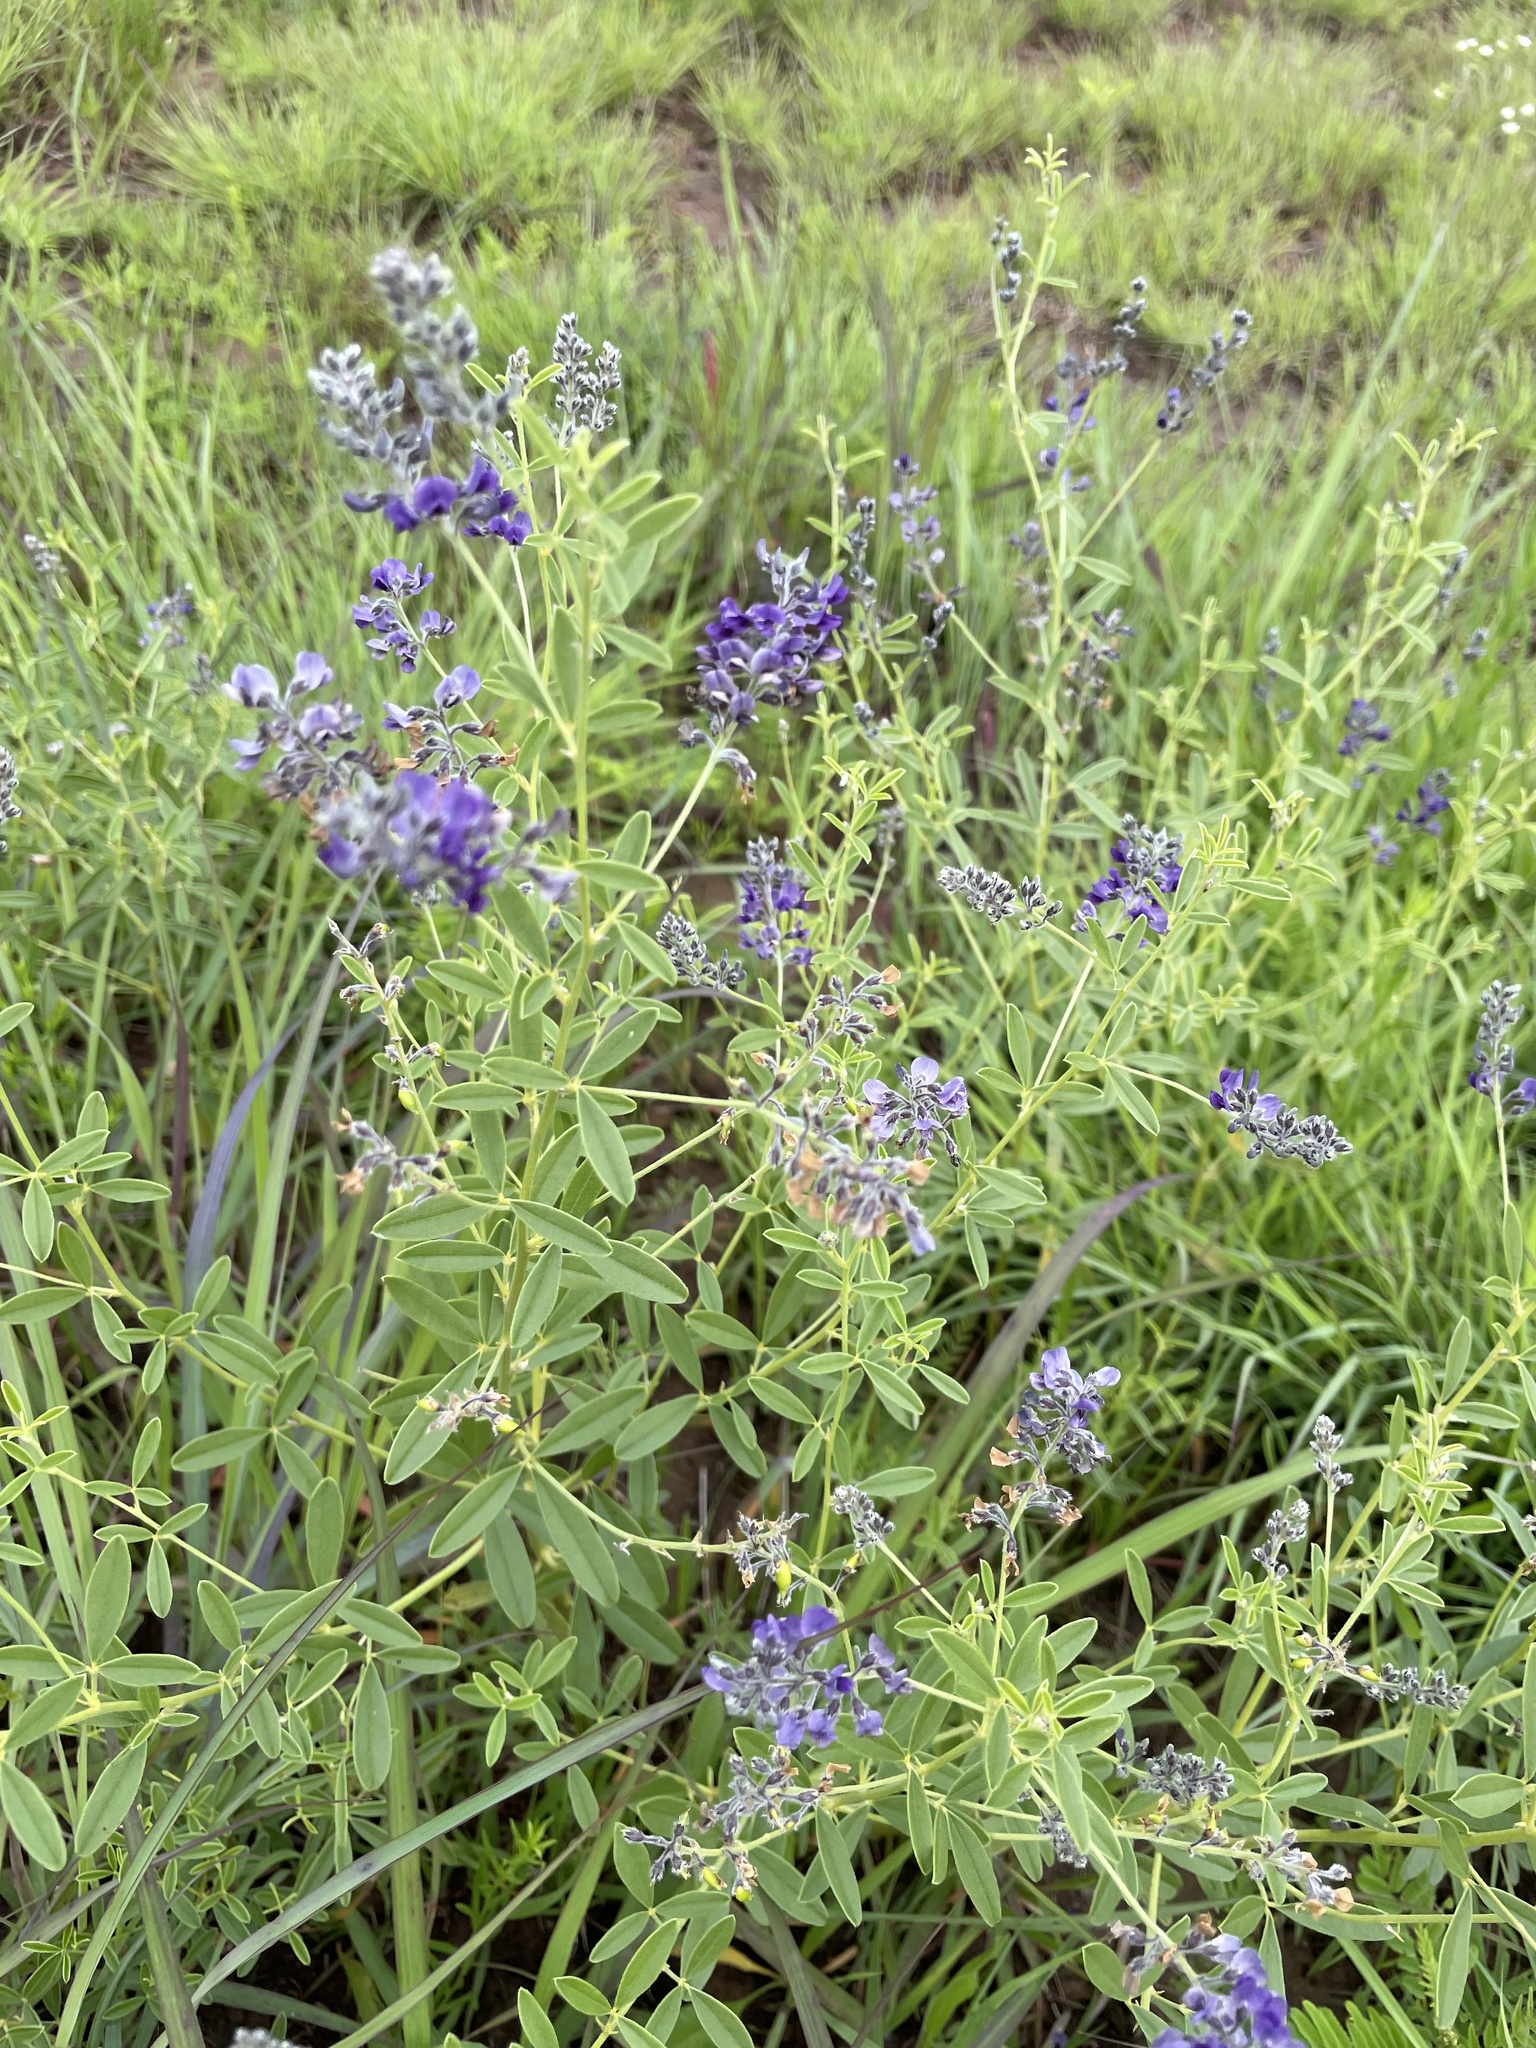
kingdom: Plantae
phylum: Tracheophyta
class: Magnoliopsida
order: Fabales
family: Fabaceae
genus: Pediomelum
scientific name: Pediomelum tenuiflorum
